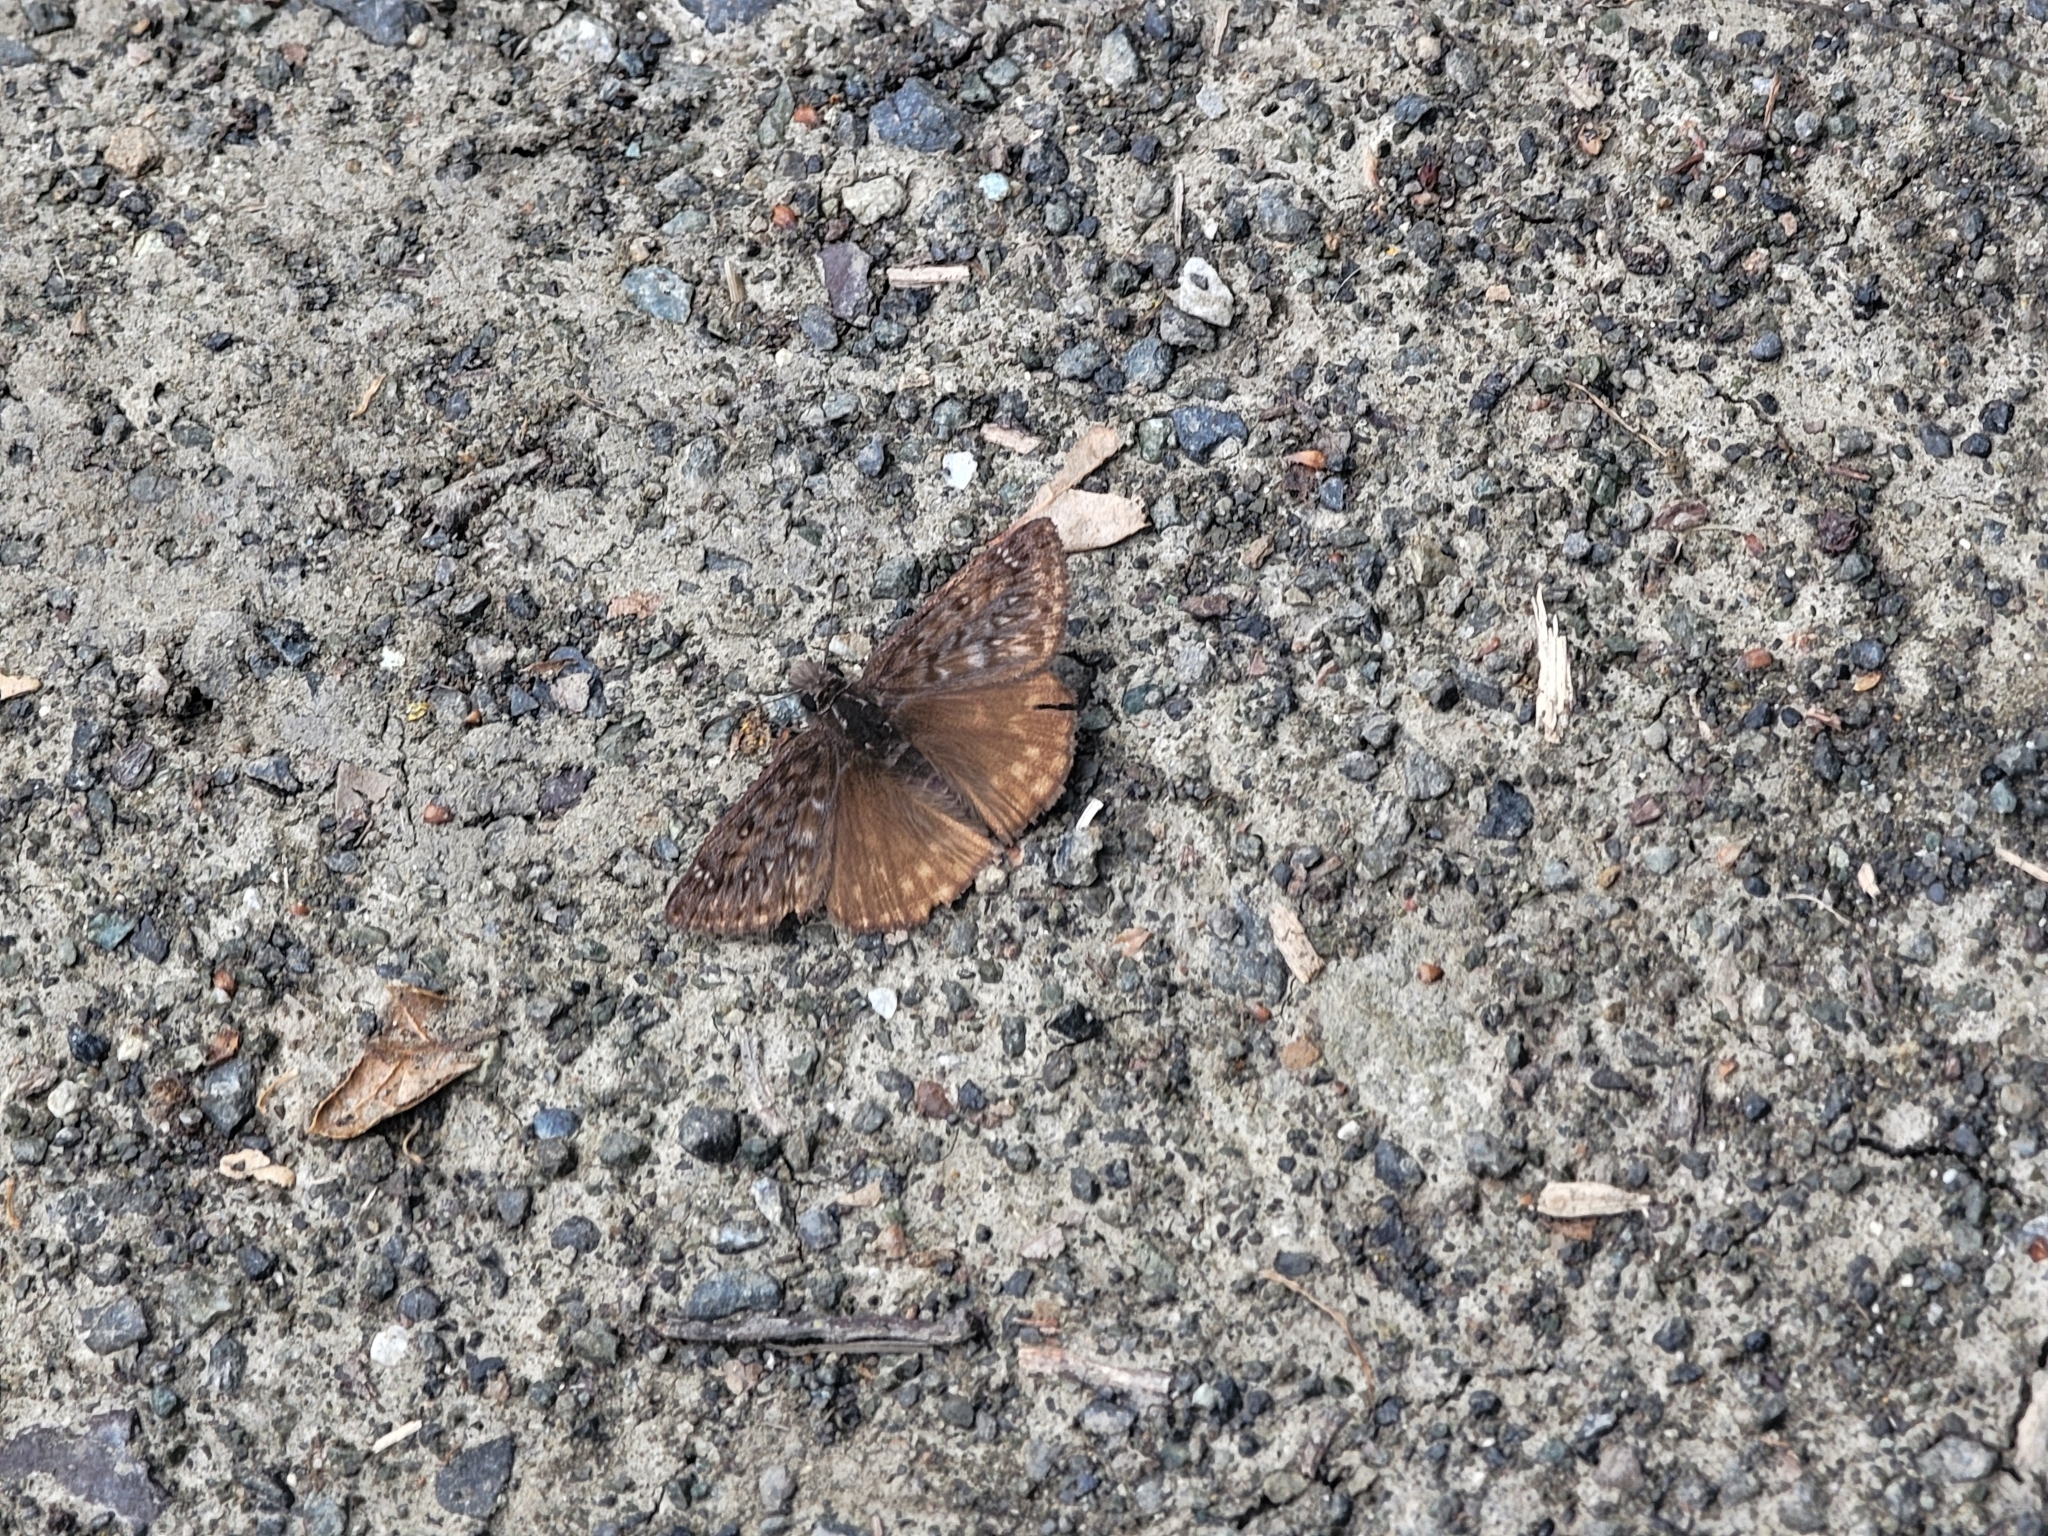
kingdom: Animalia
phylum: Arthropoda
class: Insecta
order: Lepidoptera
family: Hesperiidae
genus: Erynnis
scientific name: Erynnis propertius
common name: Propertius duskywing
